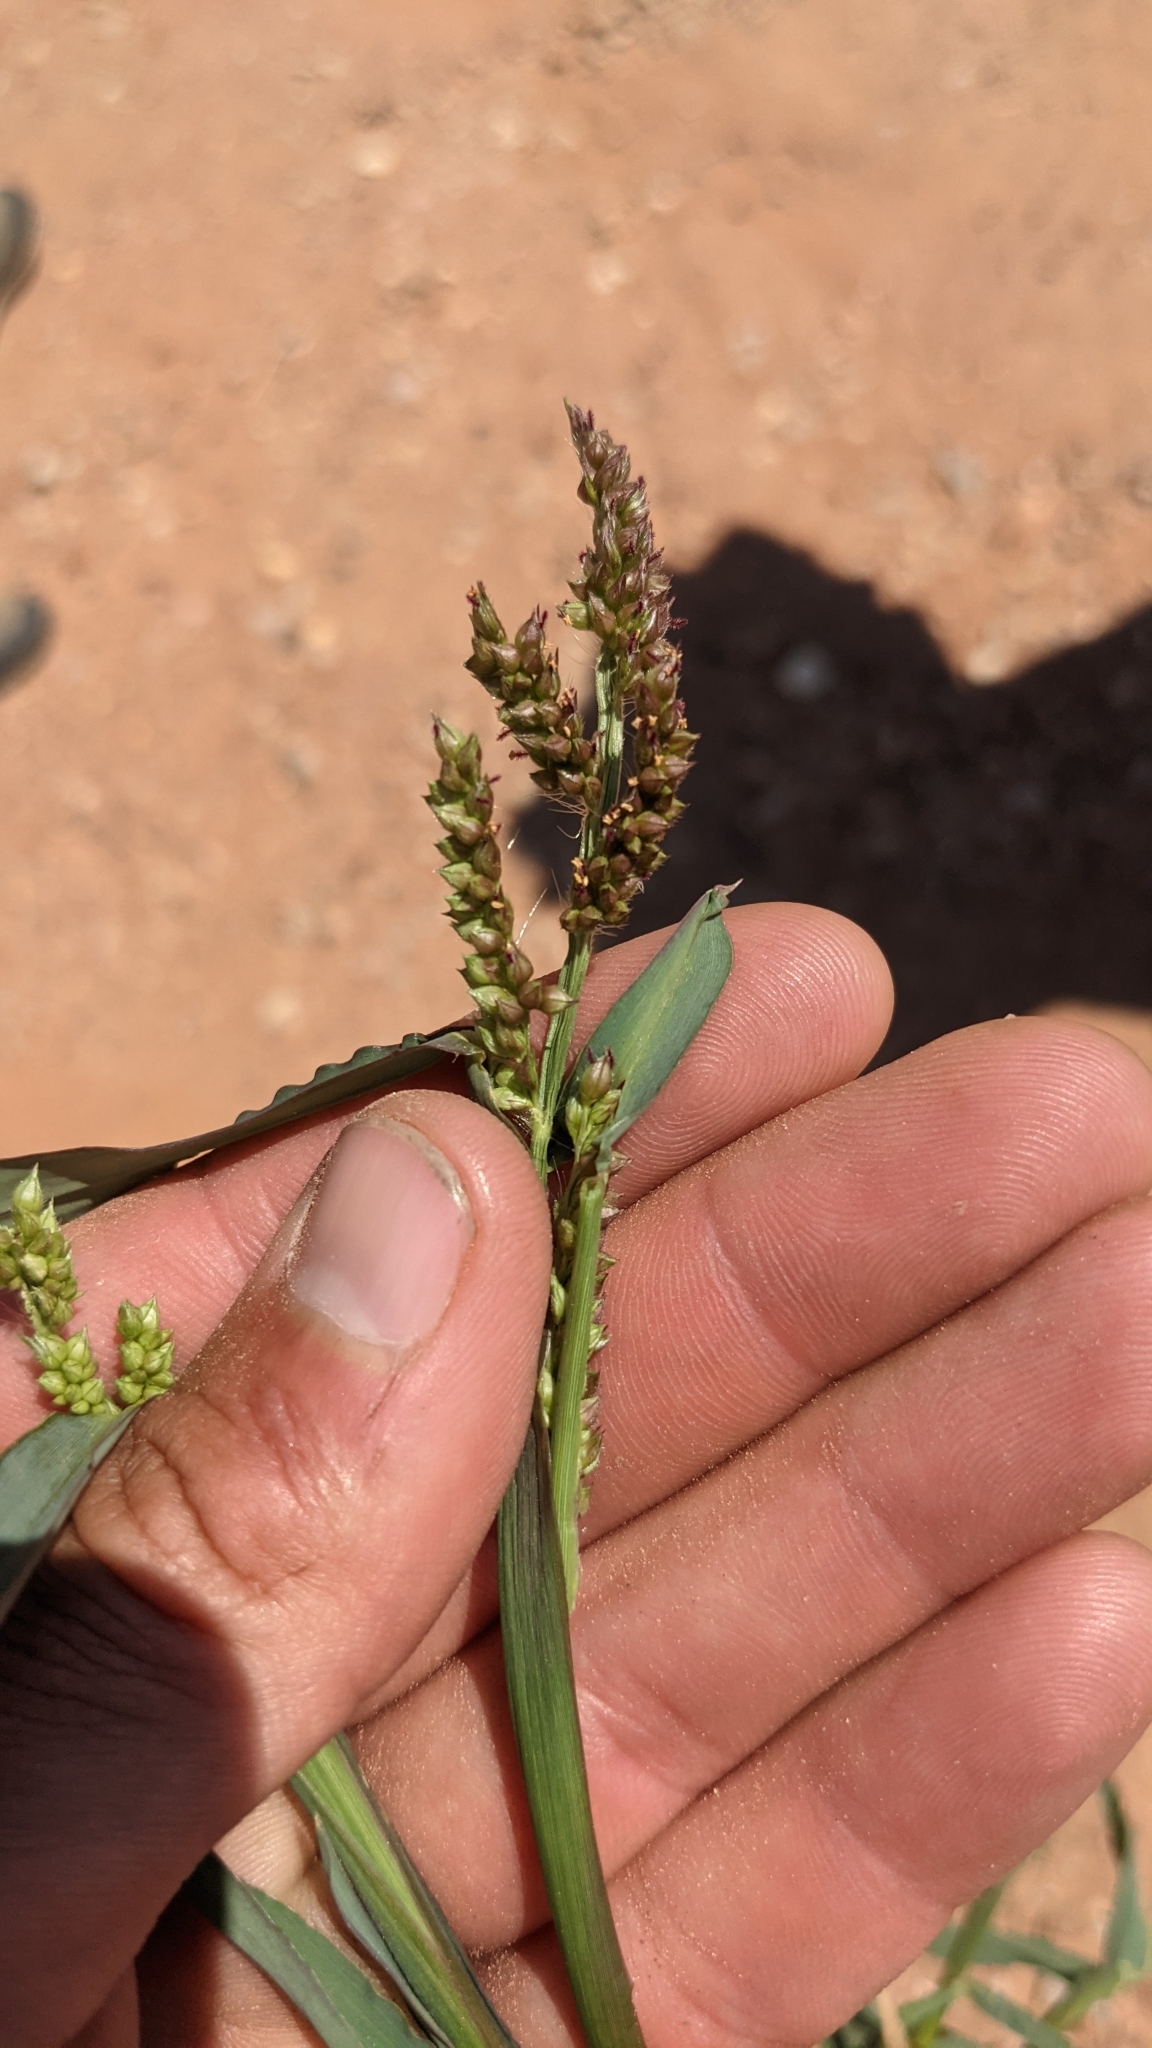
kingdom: Plantae
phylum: Tracheophyta
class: Liliopsida
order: Poales
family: Poaceae
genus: Echinochloa
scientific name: Echinochloa crus-galli
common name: Cockspur
